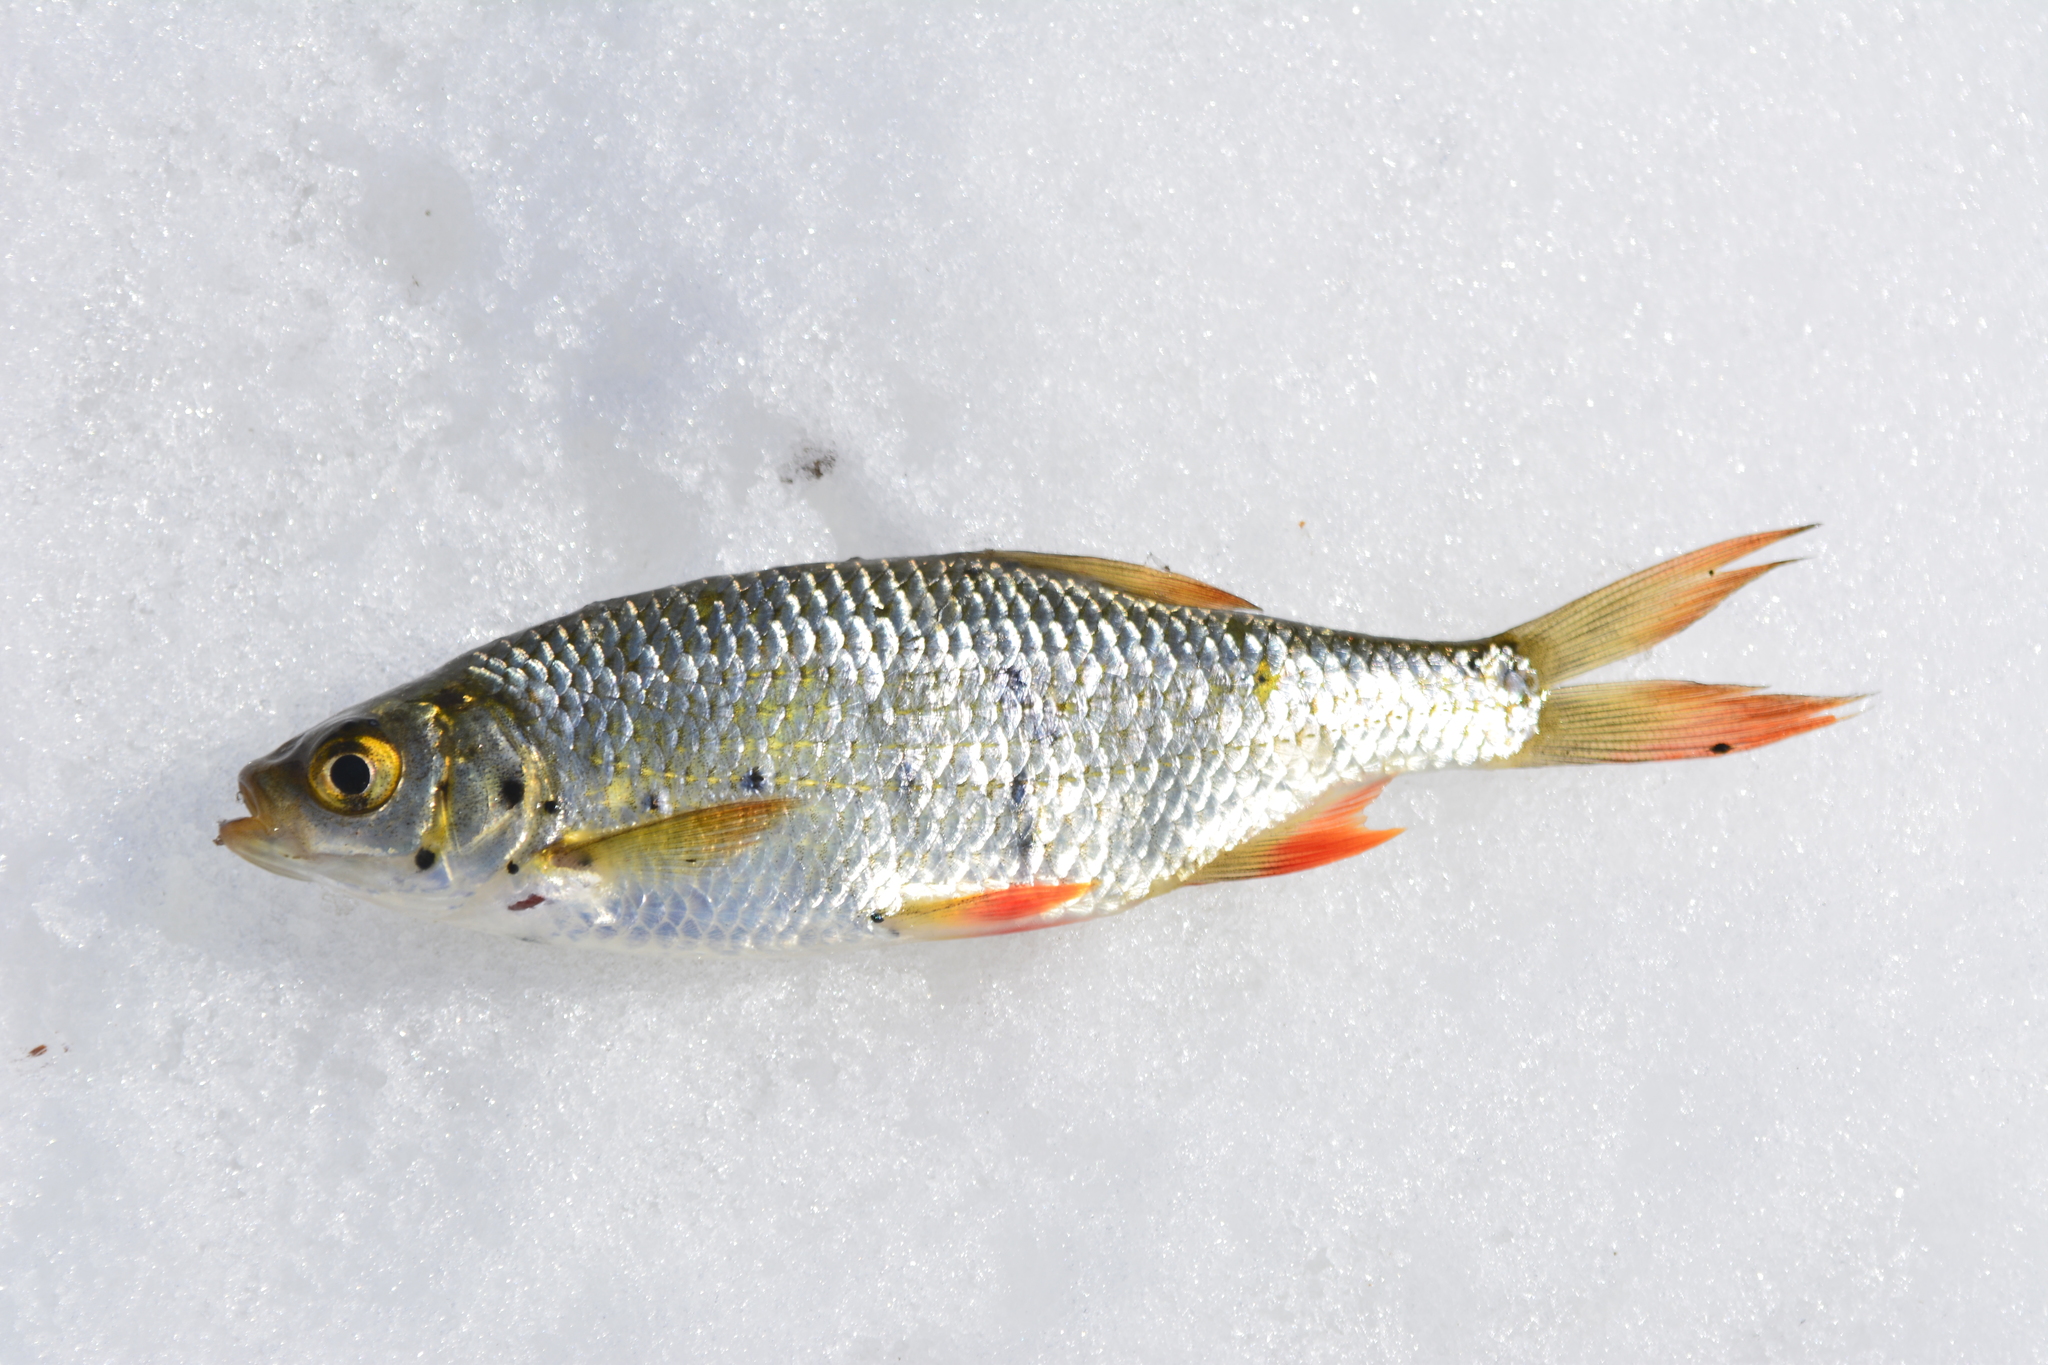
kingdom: Animalia
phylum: Chordata
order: Cypriniformes
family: Cyprinidae
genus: Scardinius
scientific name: Scardinius erythrophthalmus
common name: Rudd
